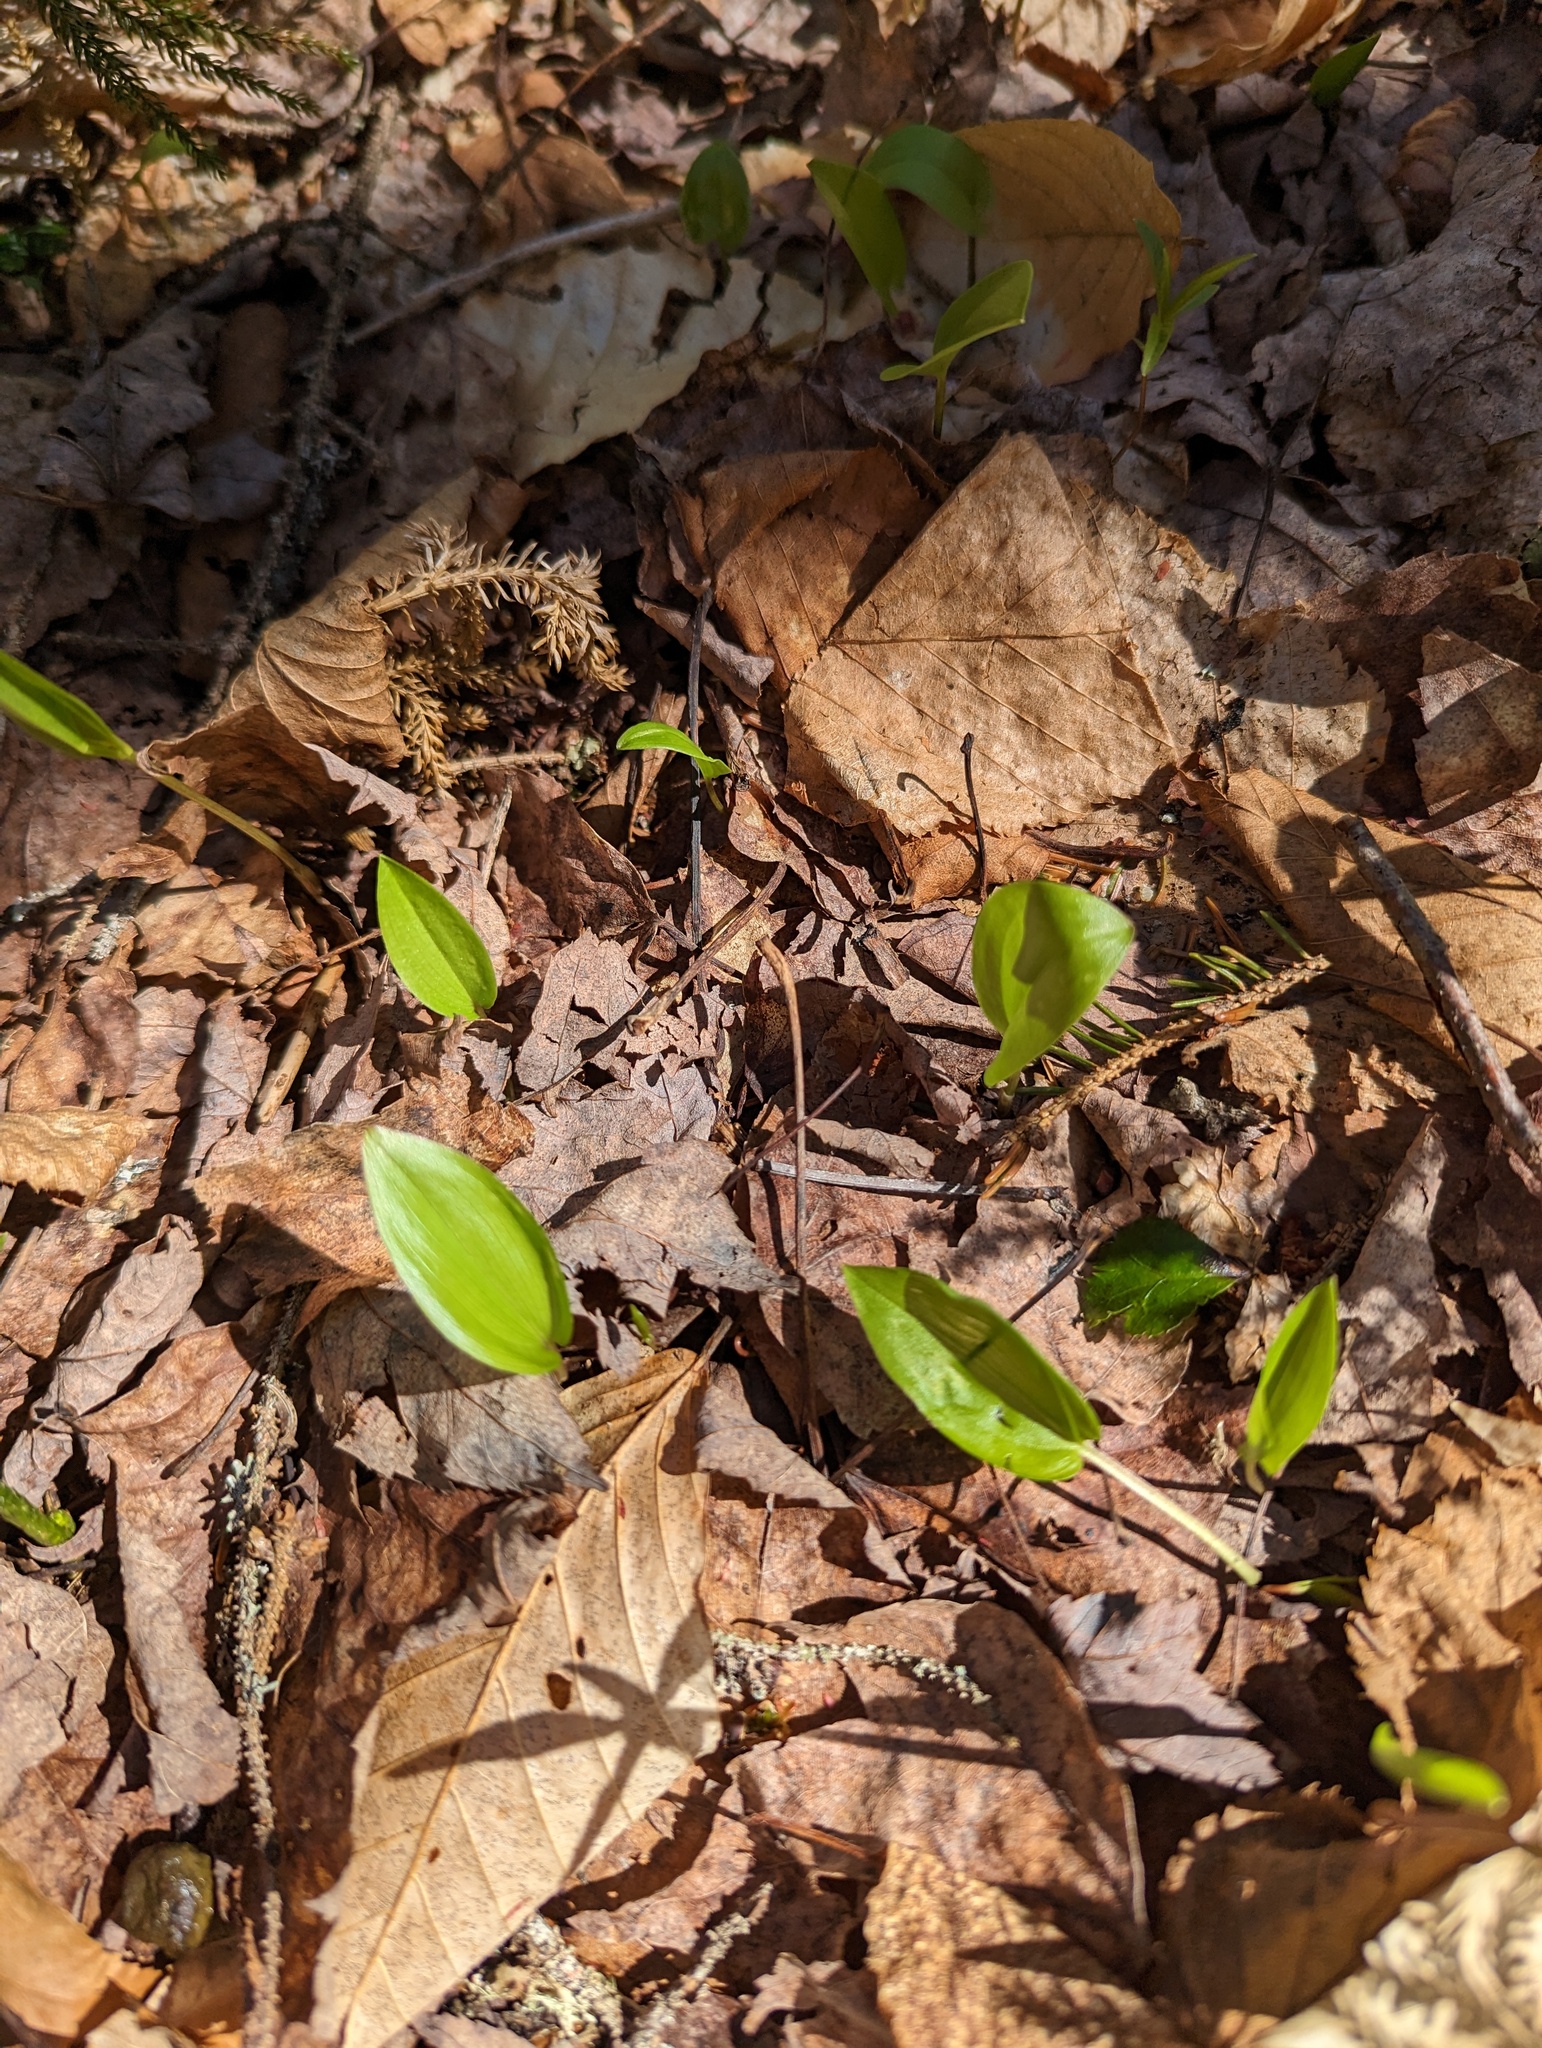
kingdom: Plantae
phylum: Tracheophyta
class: Liliopsida
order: Asparagales
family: Asparagaceae
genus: Maianthemum
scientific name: Maianthemum canadense
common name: False lily-of-the-valley
